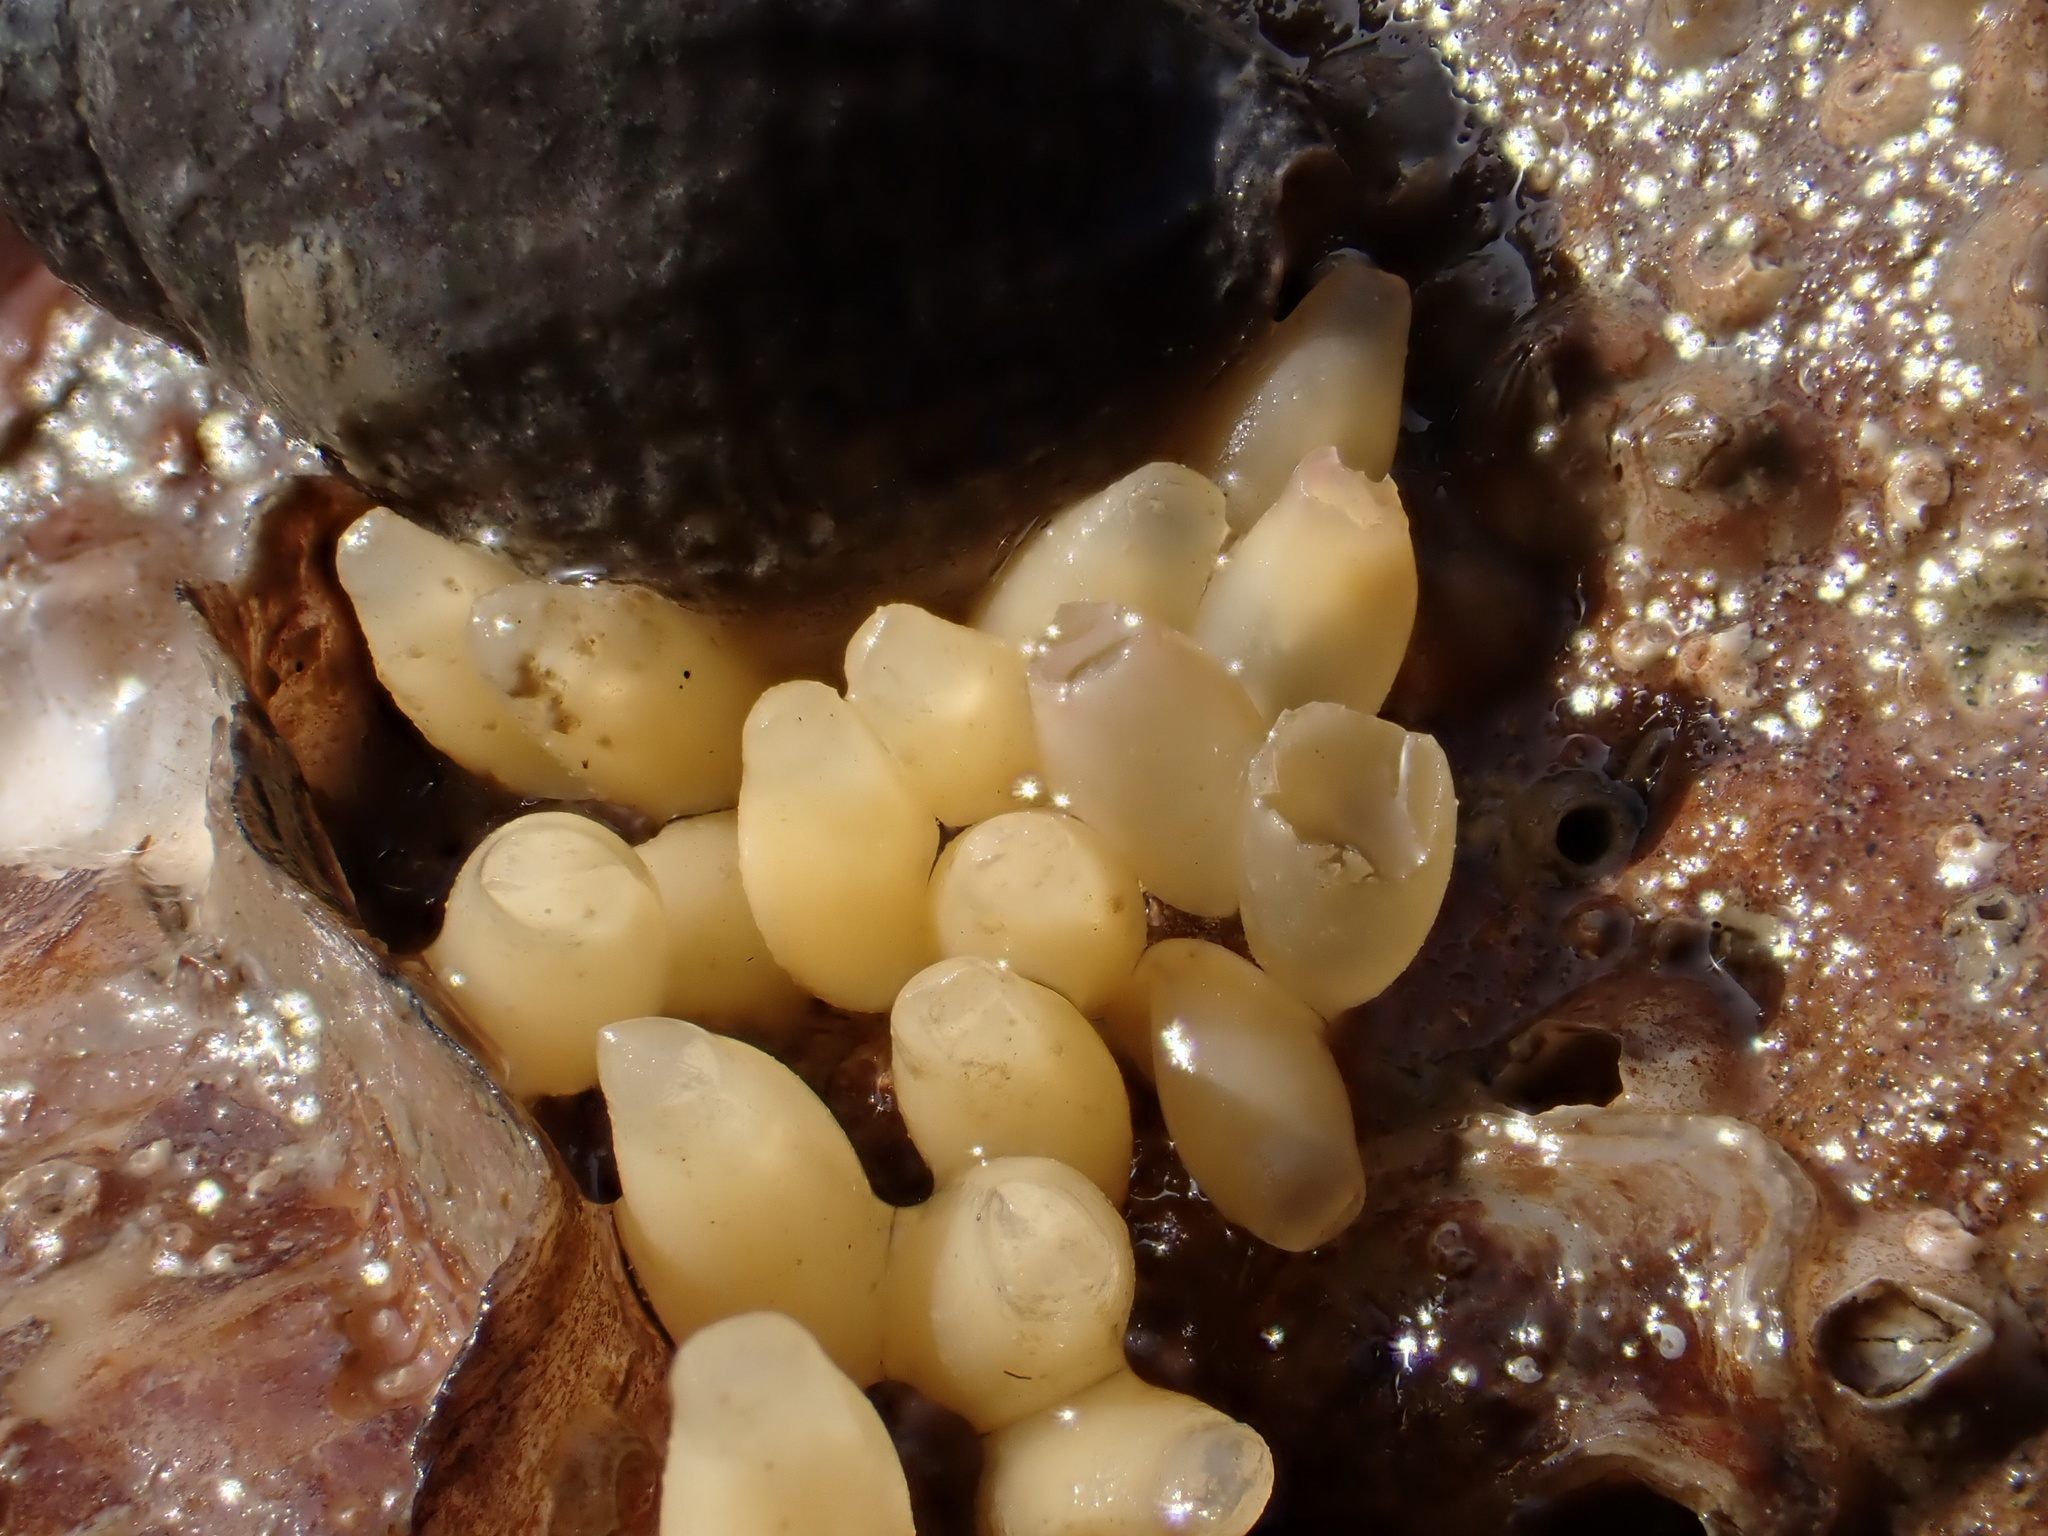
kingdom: Animalia
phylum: Mollusca
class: Gastropoda
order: Neogastropoda
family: Muricidae
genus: Nucella
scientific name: Nucella lapillus
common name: Dog whelk
